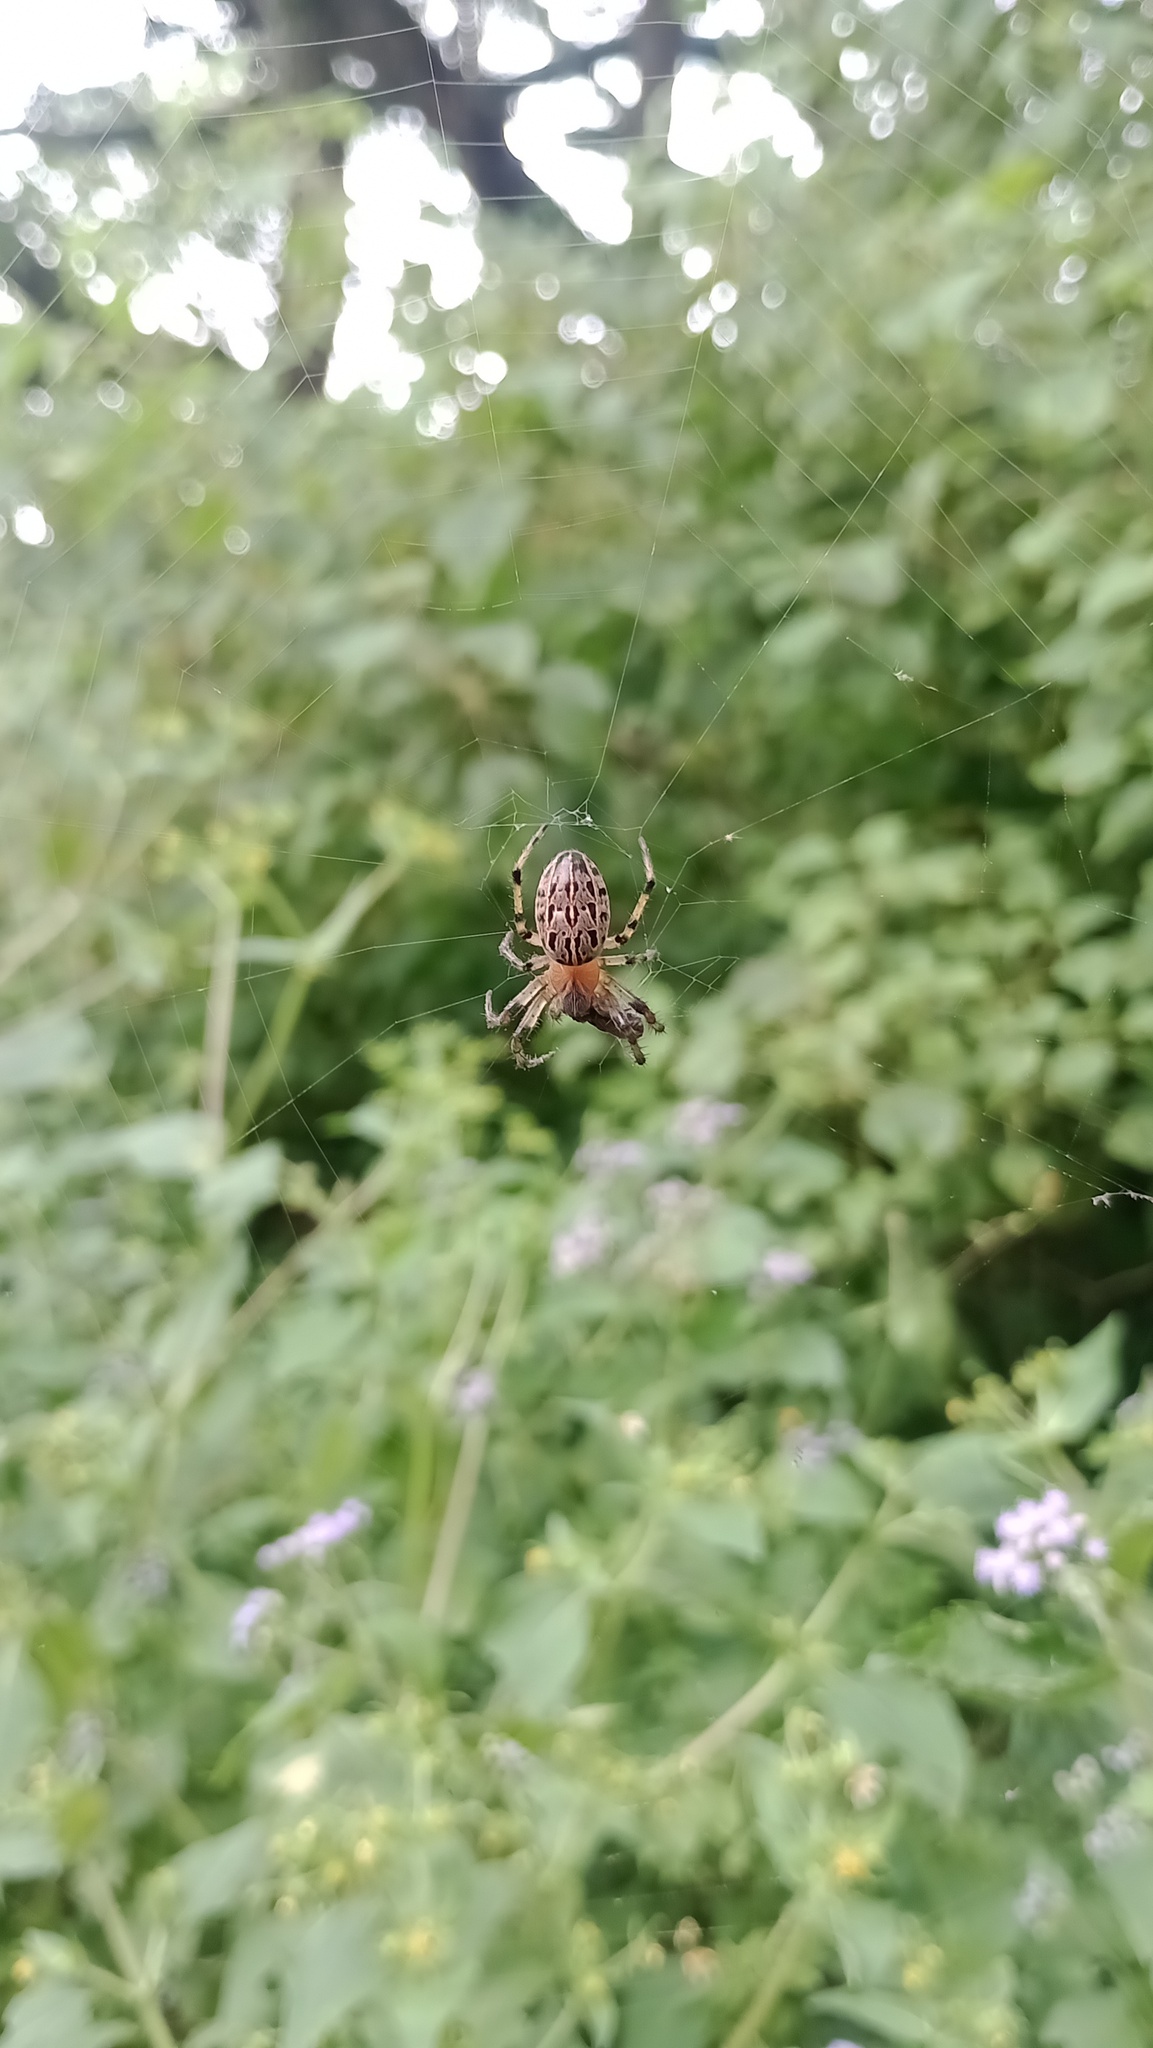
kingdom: Animalia
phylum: Arthropoda
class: Arachnida
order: Araneae
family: Araneidae
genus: Alpaida
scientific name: Alpaida veniliae
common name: Orb weavers
